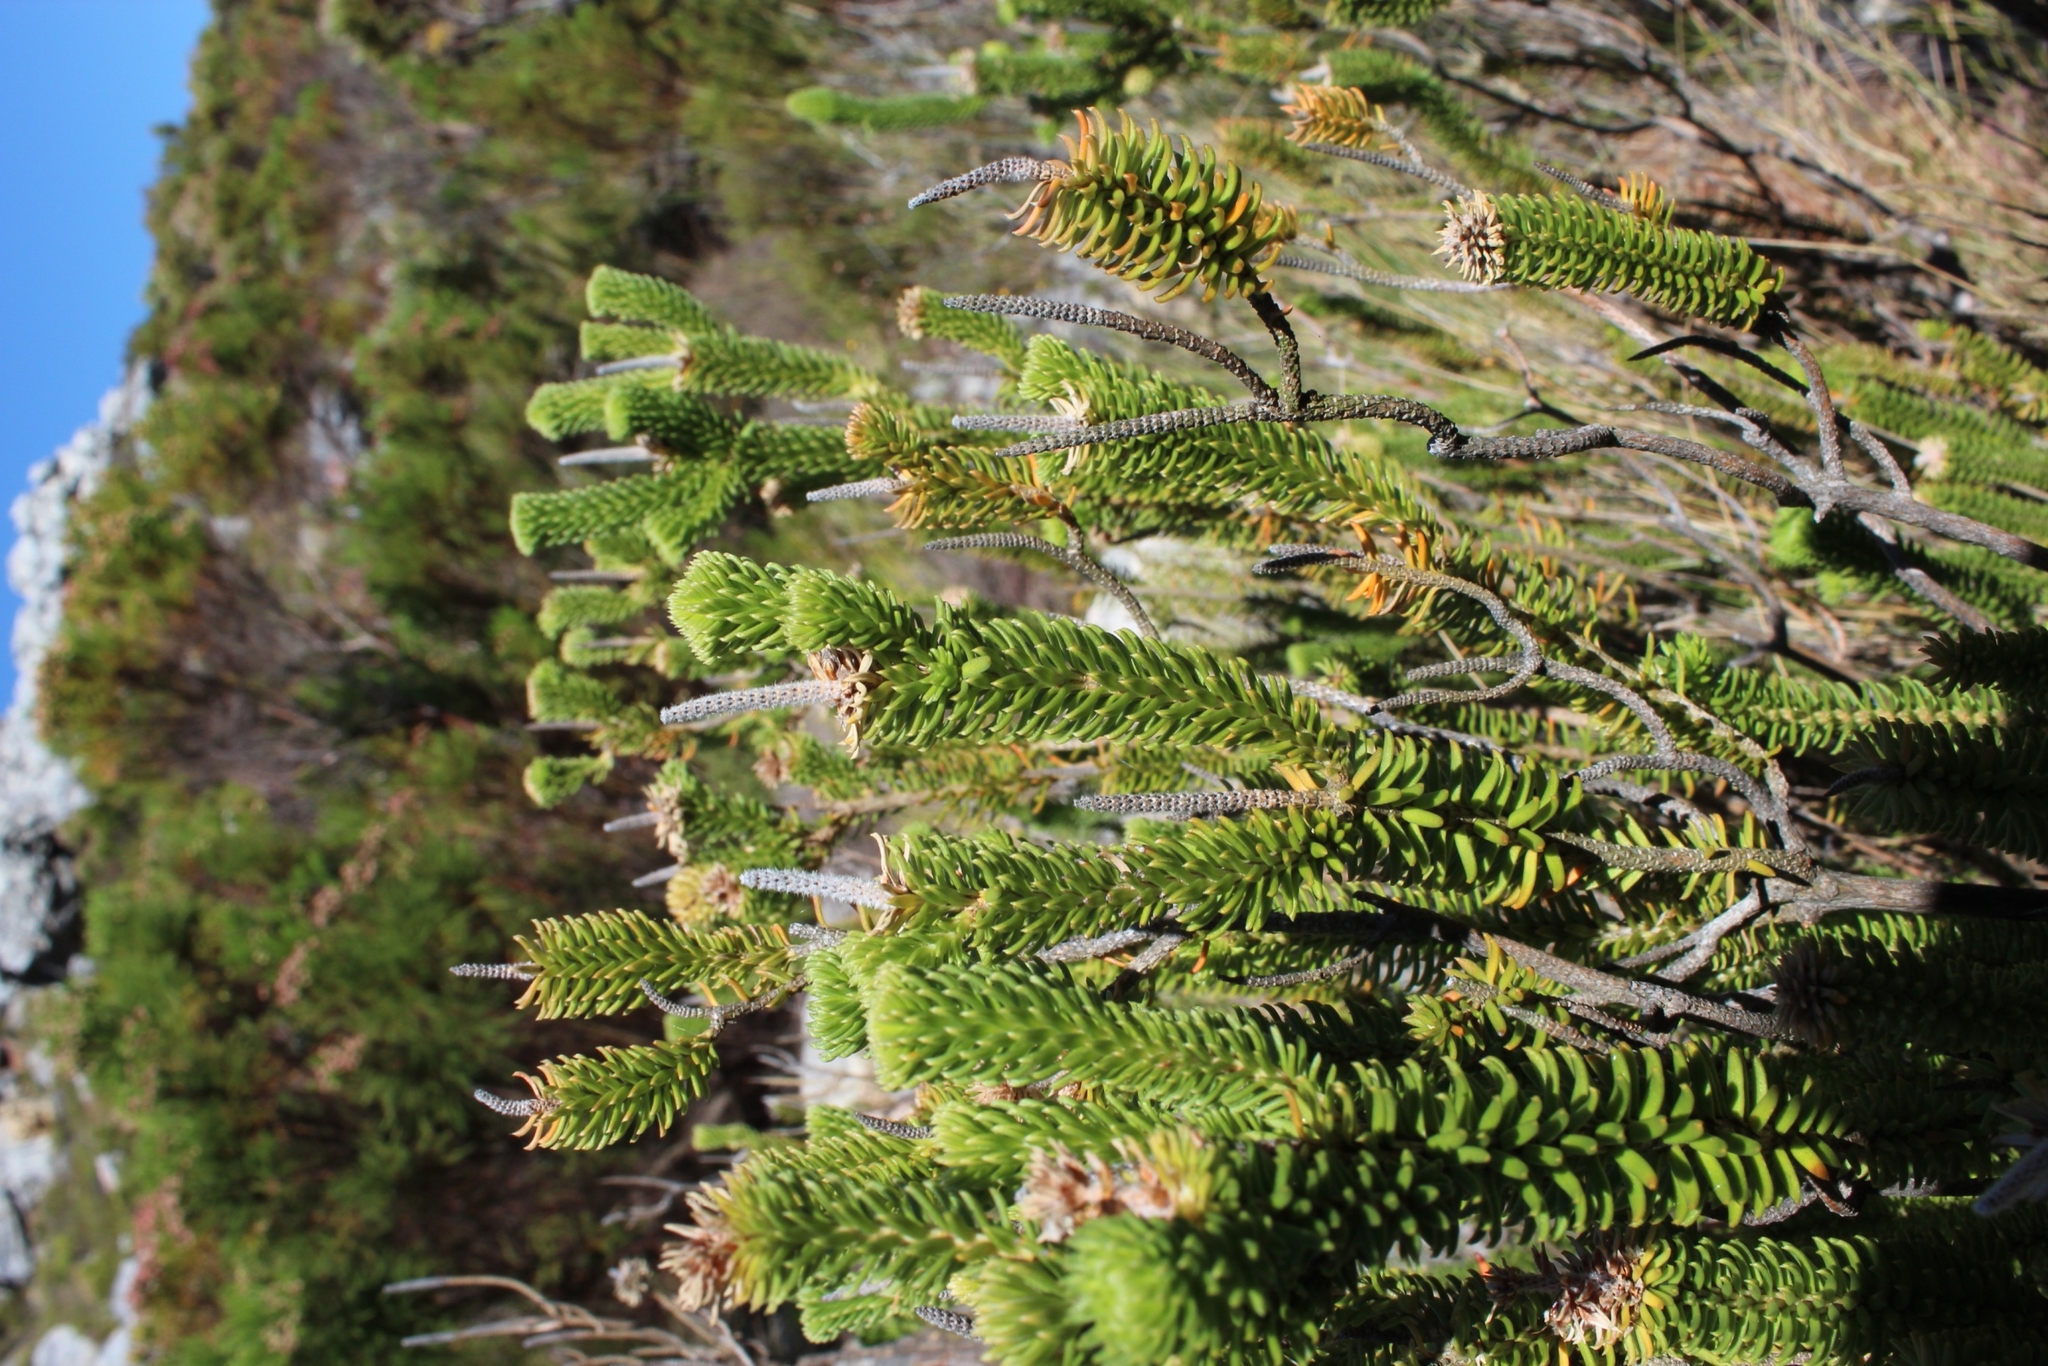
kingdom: Plantae
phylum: Tracheophyta
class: Magnoliopsida
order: Lamiales
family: Stilbaceae
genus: Stilbe
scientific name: Stilbe vestita
